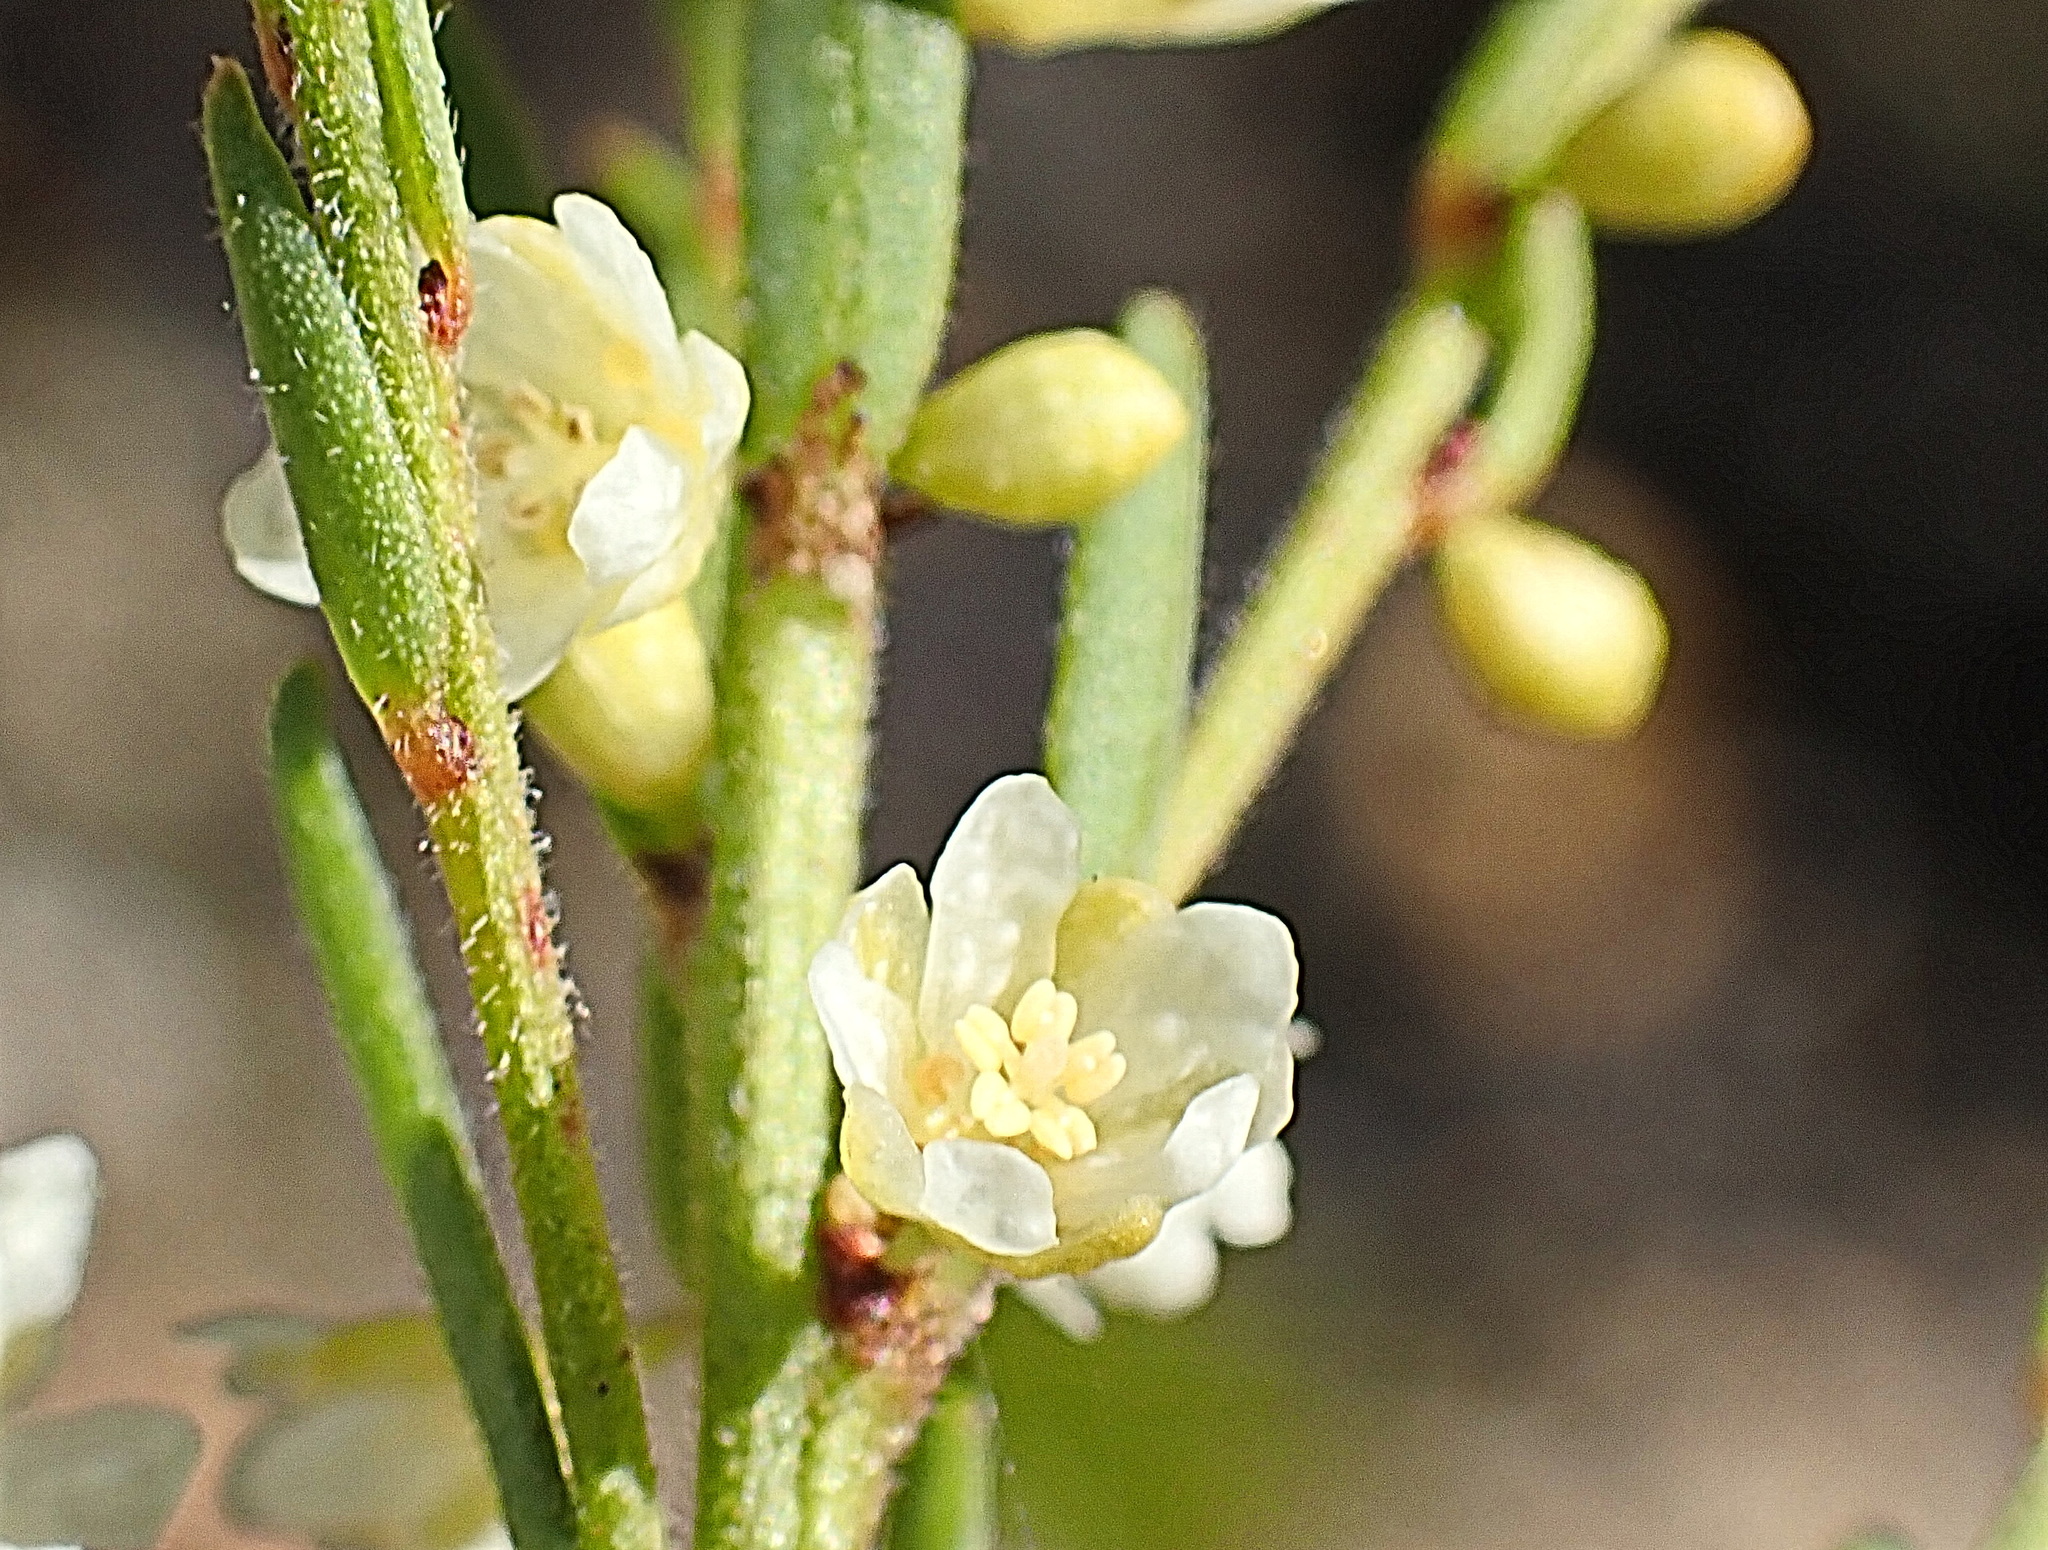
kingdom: Plantae
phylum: Tracheophyta
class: Magnoliopsida
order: Malpighiales
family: Peraceae
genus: Clutia
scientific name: Clutia ericoides
